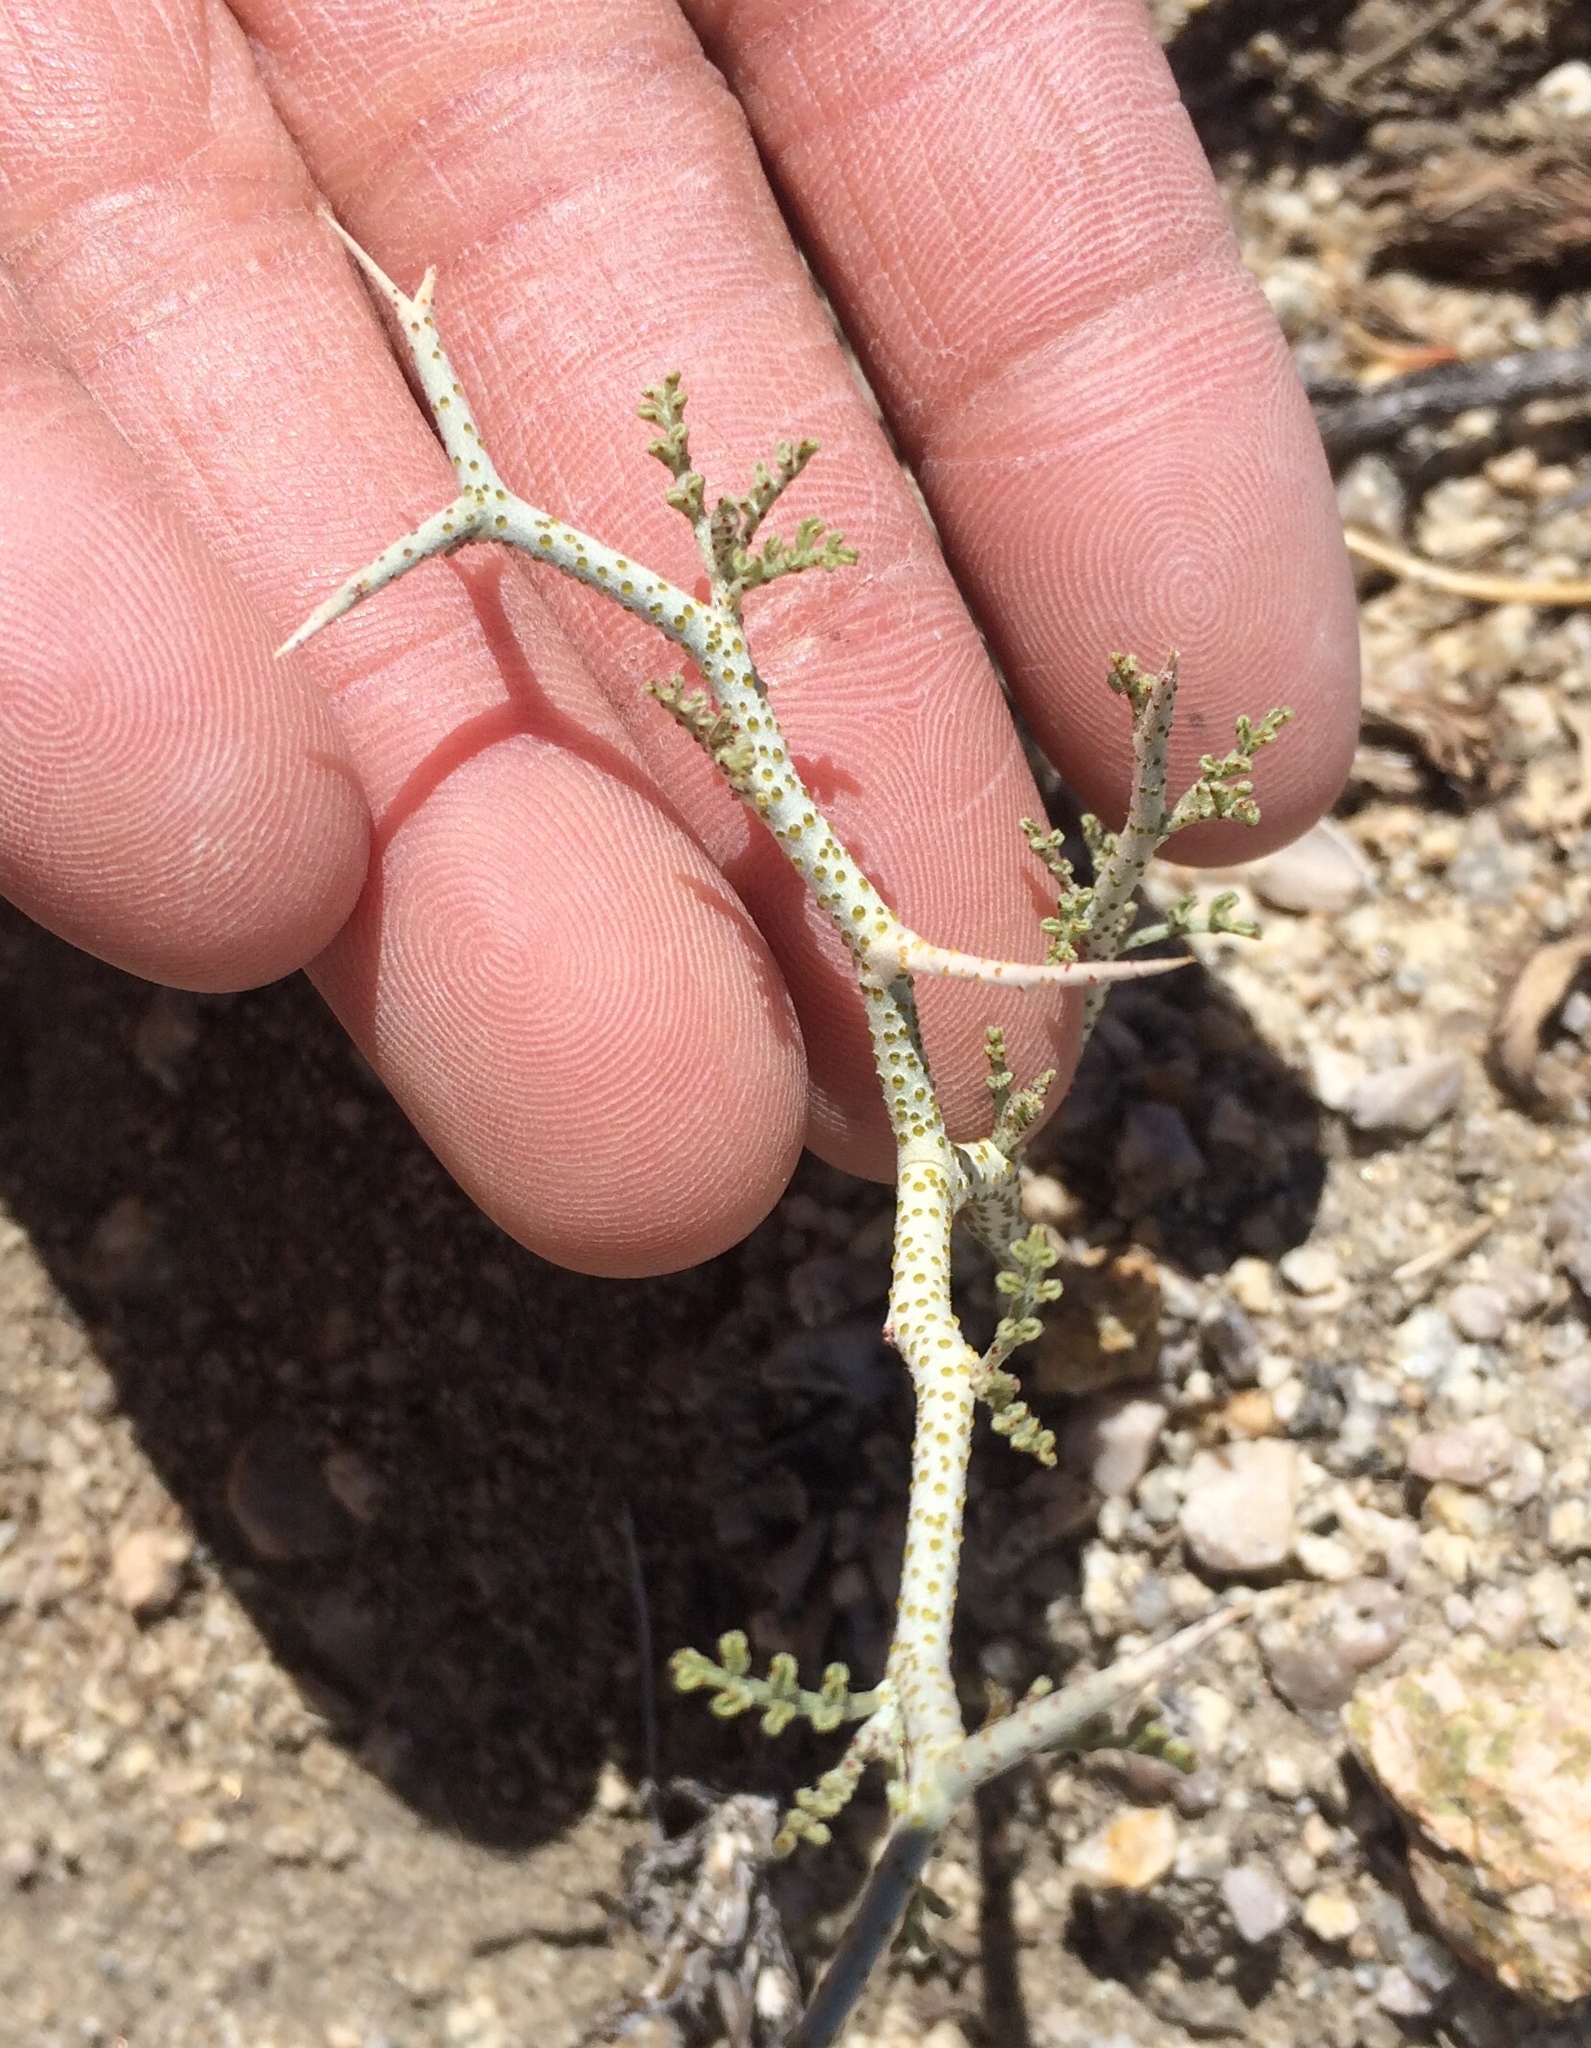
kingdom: Plantae
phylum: Tracheophyta
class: Magnoliopsida
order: Fabales
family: Fabaceae
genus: Psorothamnus
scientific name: Psorothamnus polydenius
